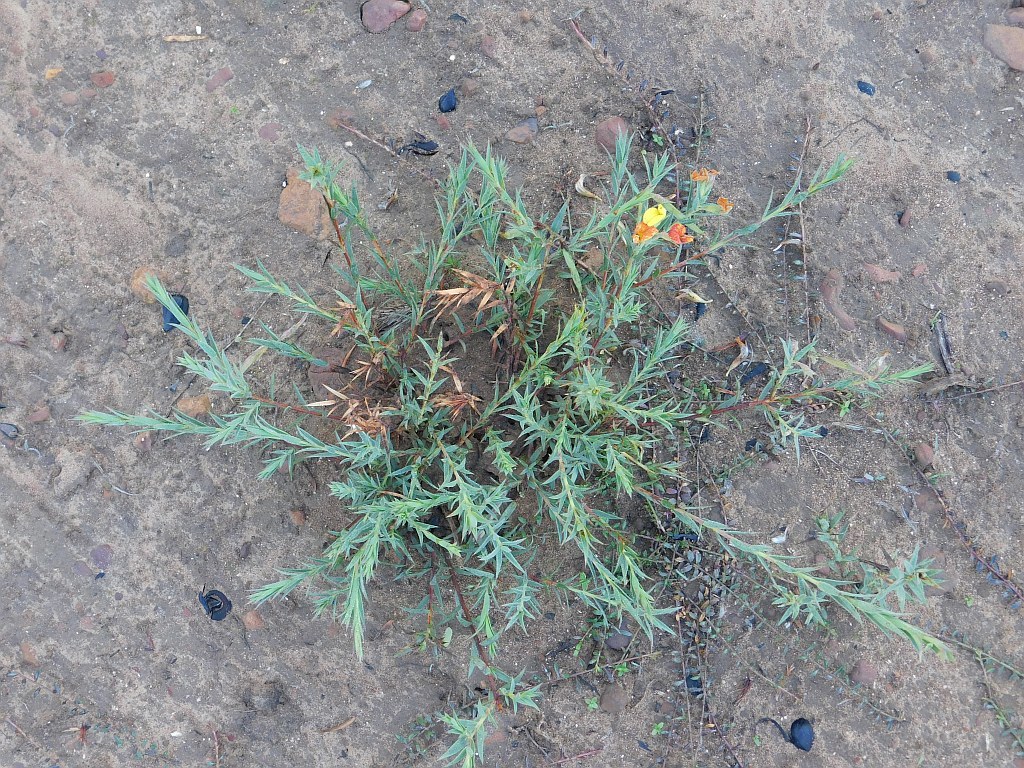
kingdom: Plantae
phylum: Tracheophyta
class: Magnoliopsida
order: Fabales
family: Fabaceae
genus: Aspalathus
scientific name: Aspalathus angustifolia
